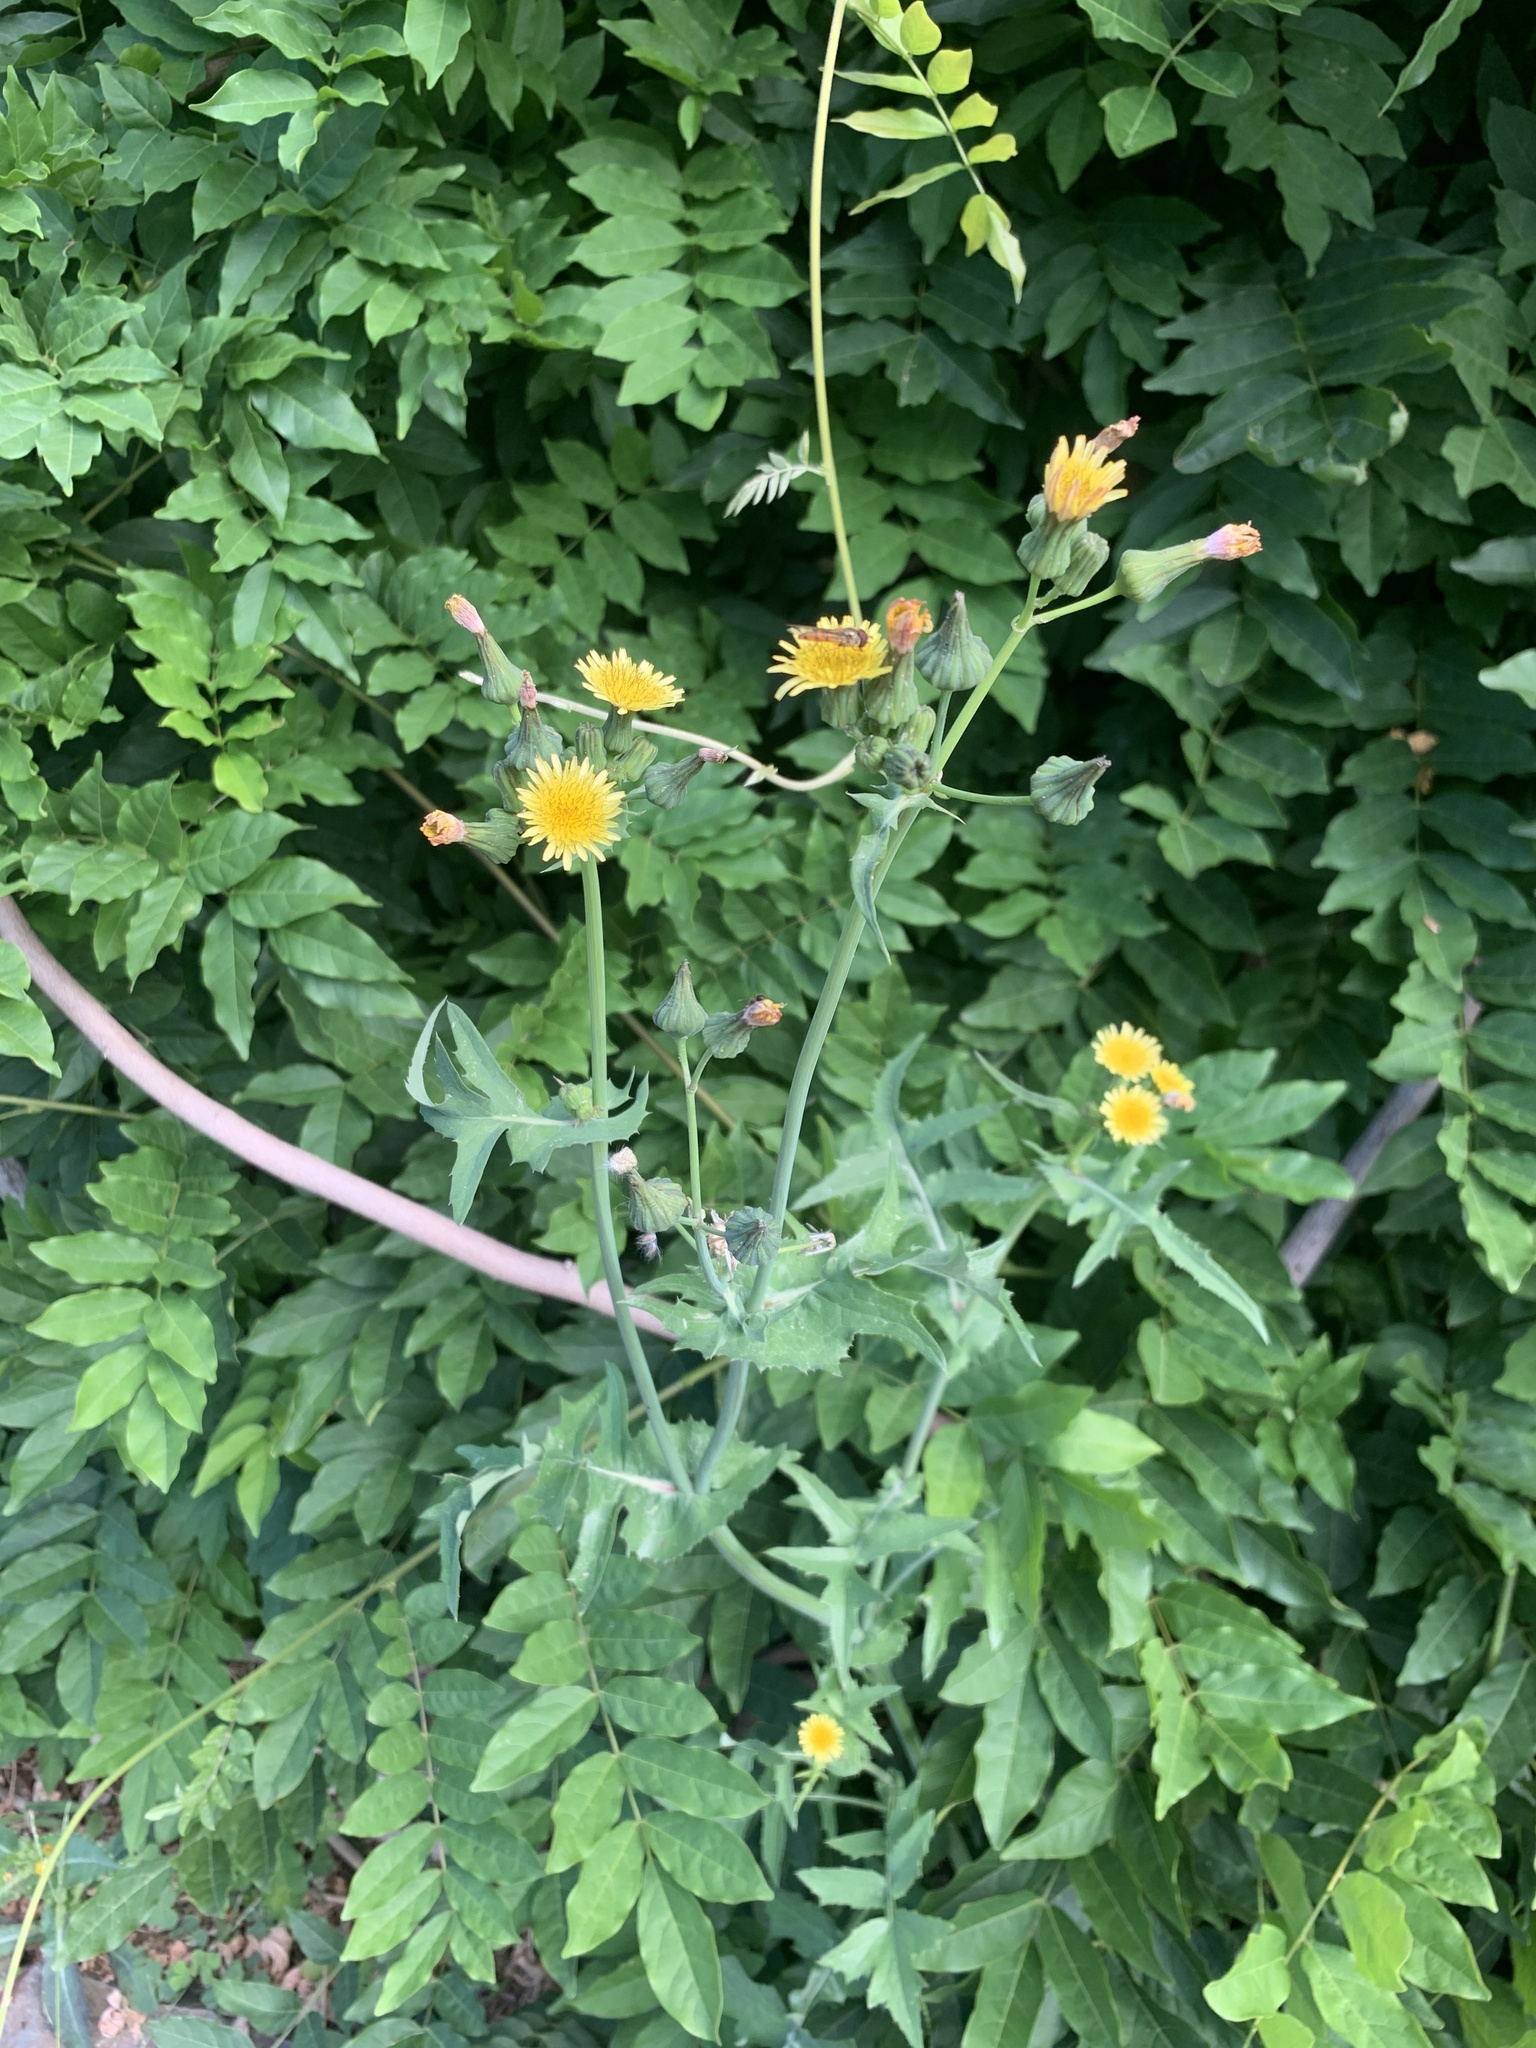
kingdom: Plantae
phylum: Tracheophyta
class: Magnoliopsida
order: Asterales
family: Asteraceae
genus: Sonchus
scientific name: Sonchus oleraceus
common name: Common sowthistle
